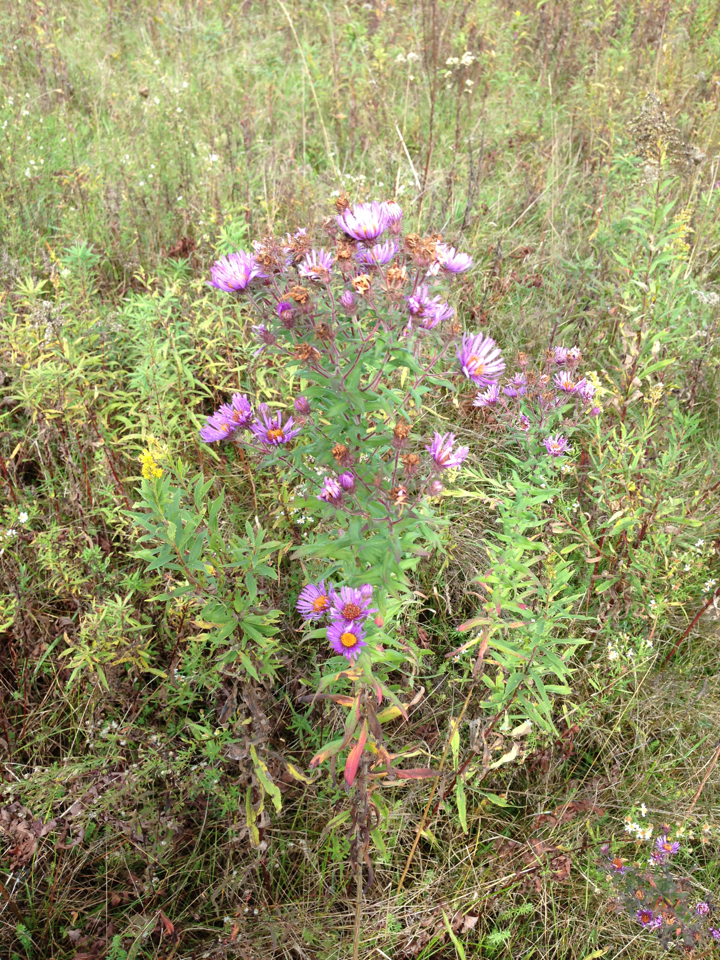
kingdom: Plantae
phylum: Tracheophyta
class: Magnoliopsida
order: Asterales
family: Asteraceae
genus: Symphyotrichum
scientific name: Symphyotrichum novae-angliae
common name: Michaelmas daisy
